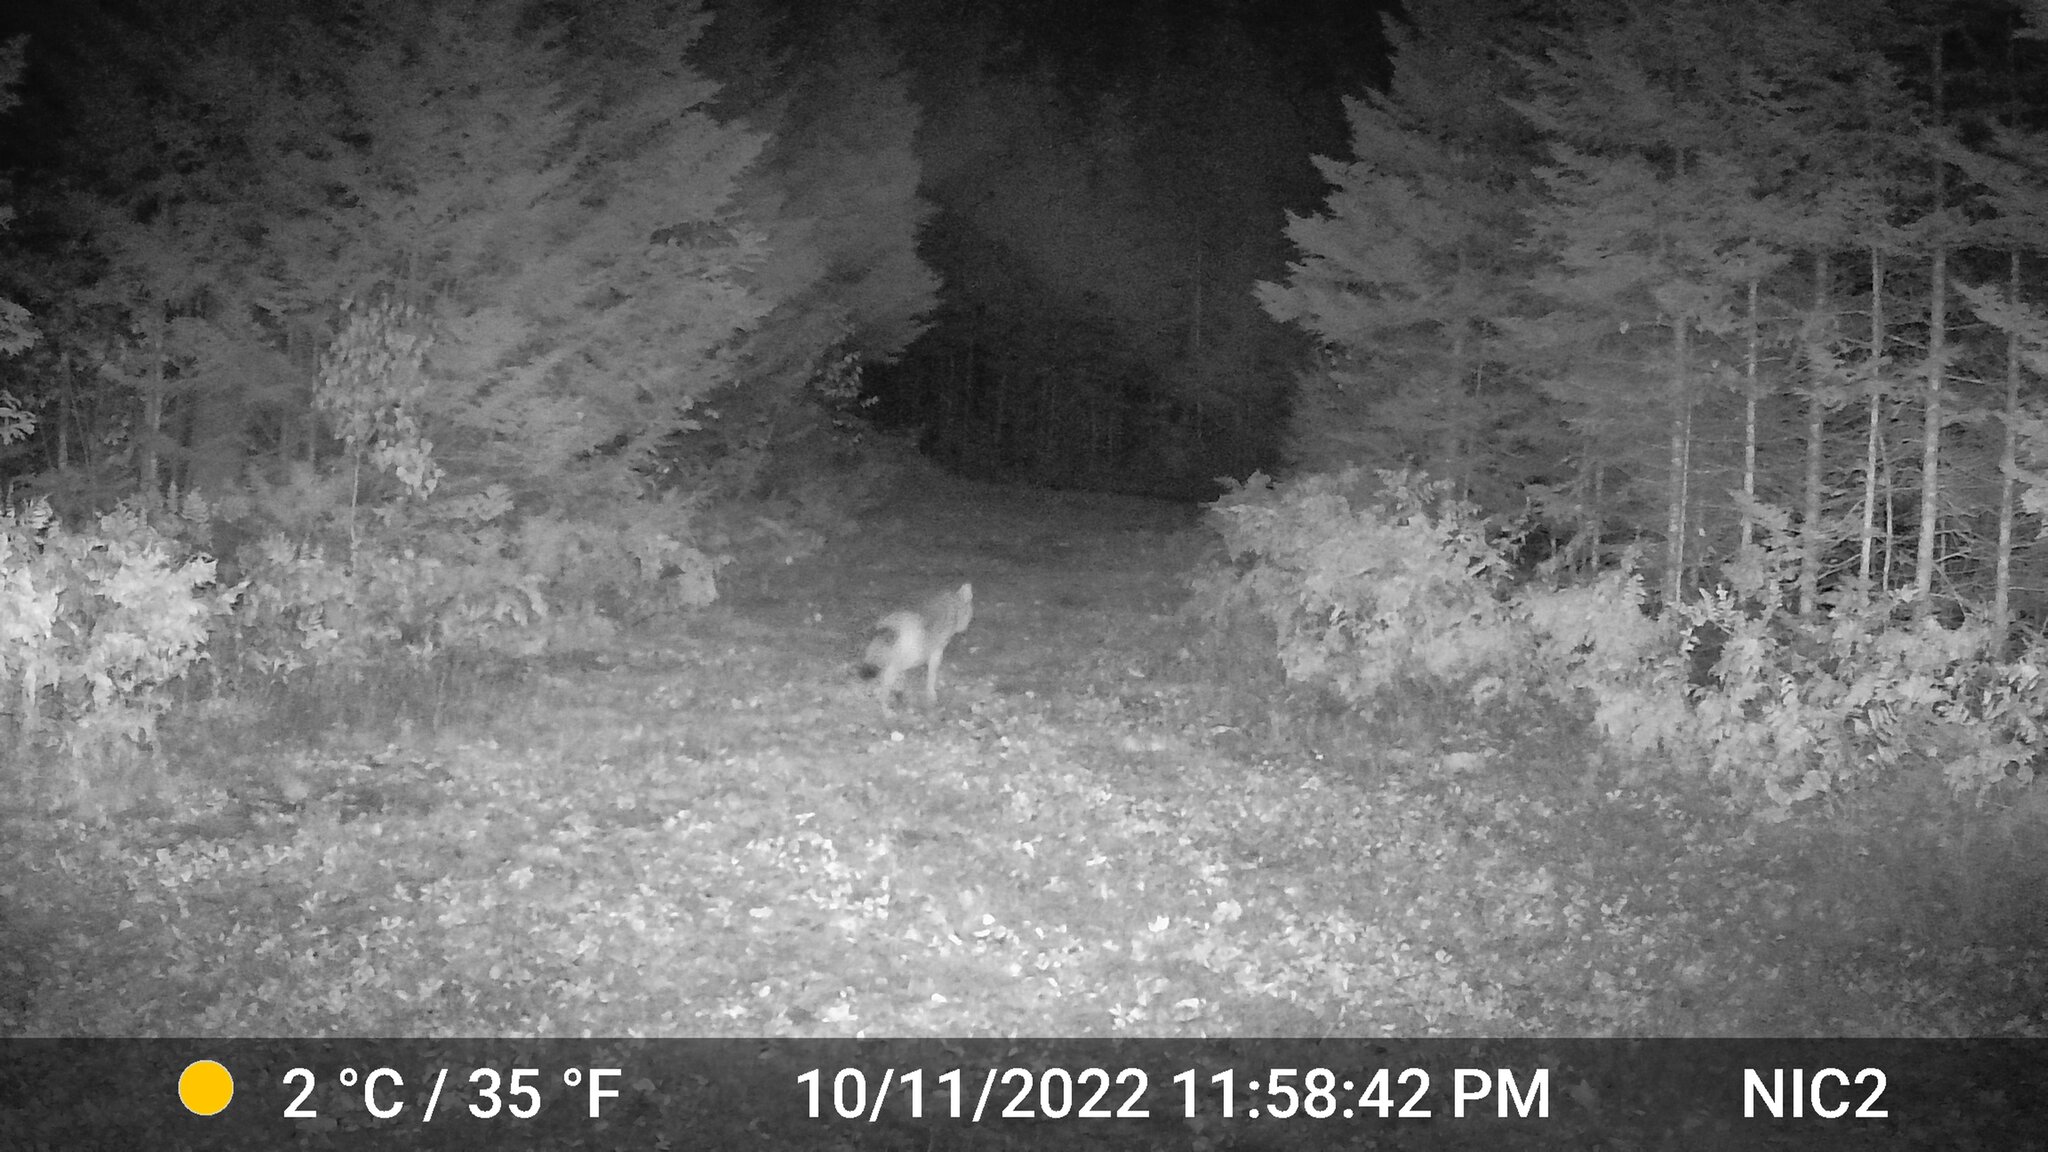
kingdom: Animalia
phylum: Chordata
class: Mammalia
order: Carnivora
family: Canidae
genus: Canis
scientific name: Canis latrans
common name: Coyote
